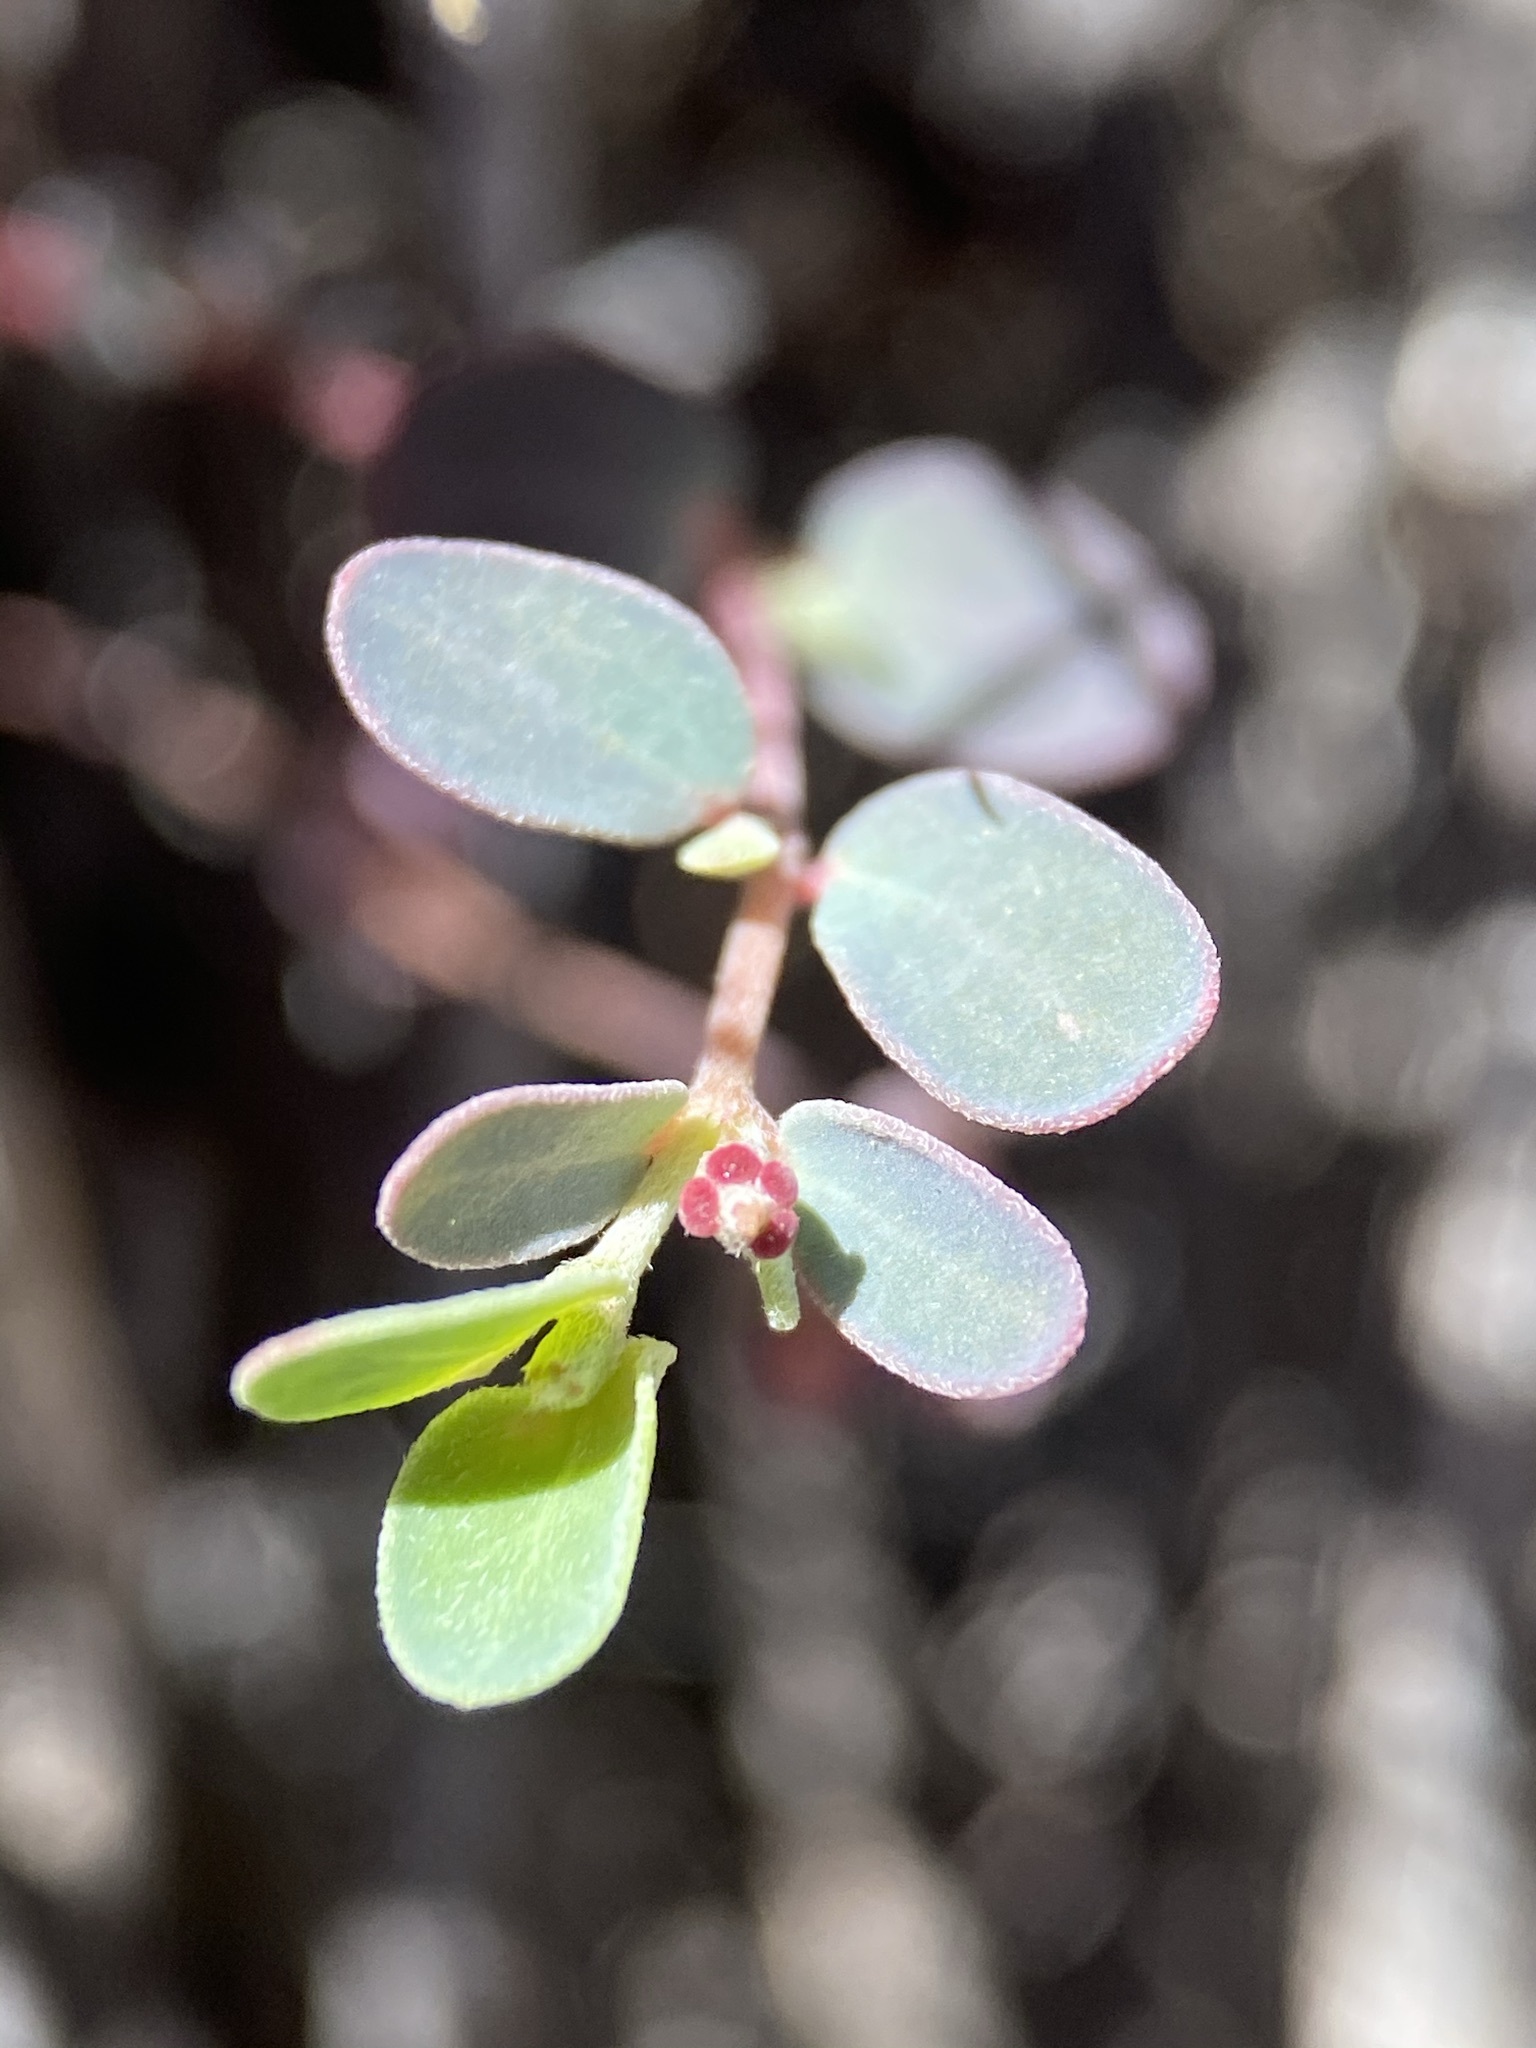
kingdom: Plantae
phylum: Tracheophyta
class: Magnoliopsida
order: Malpighiales
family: Euphorbiaceae
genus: Euphorbia
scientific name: Euphorbia cinerascens
